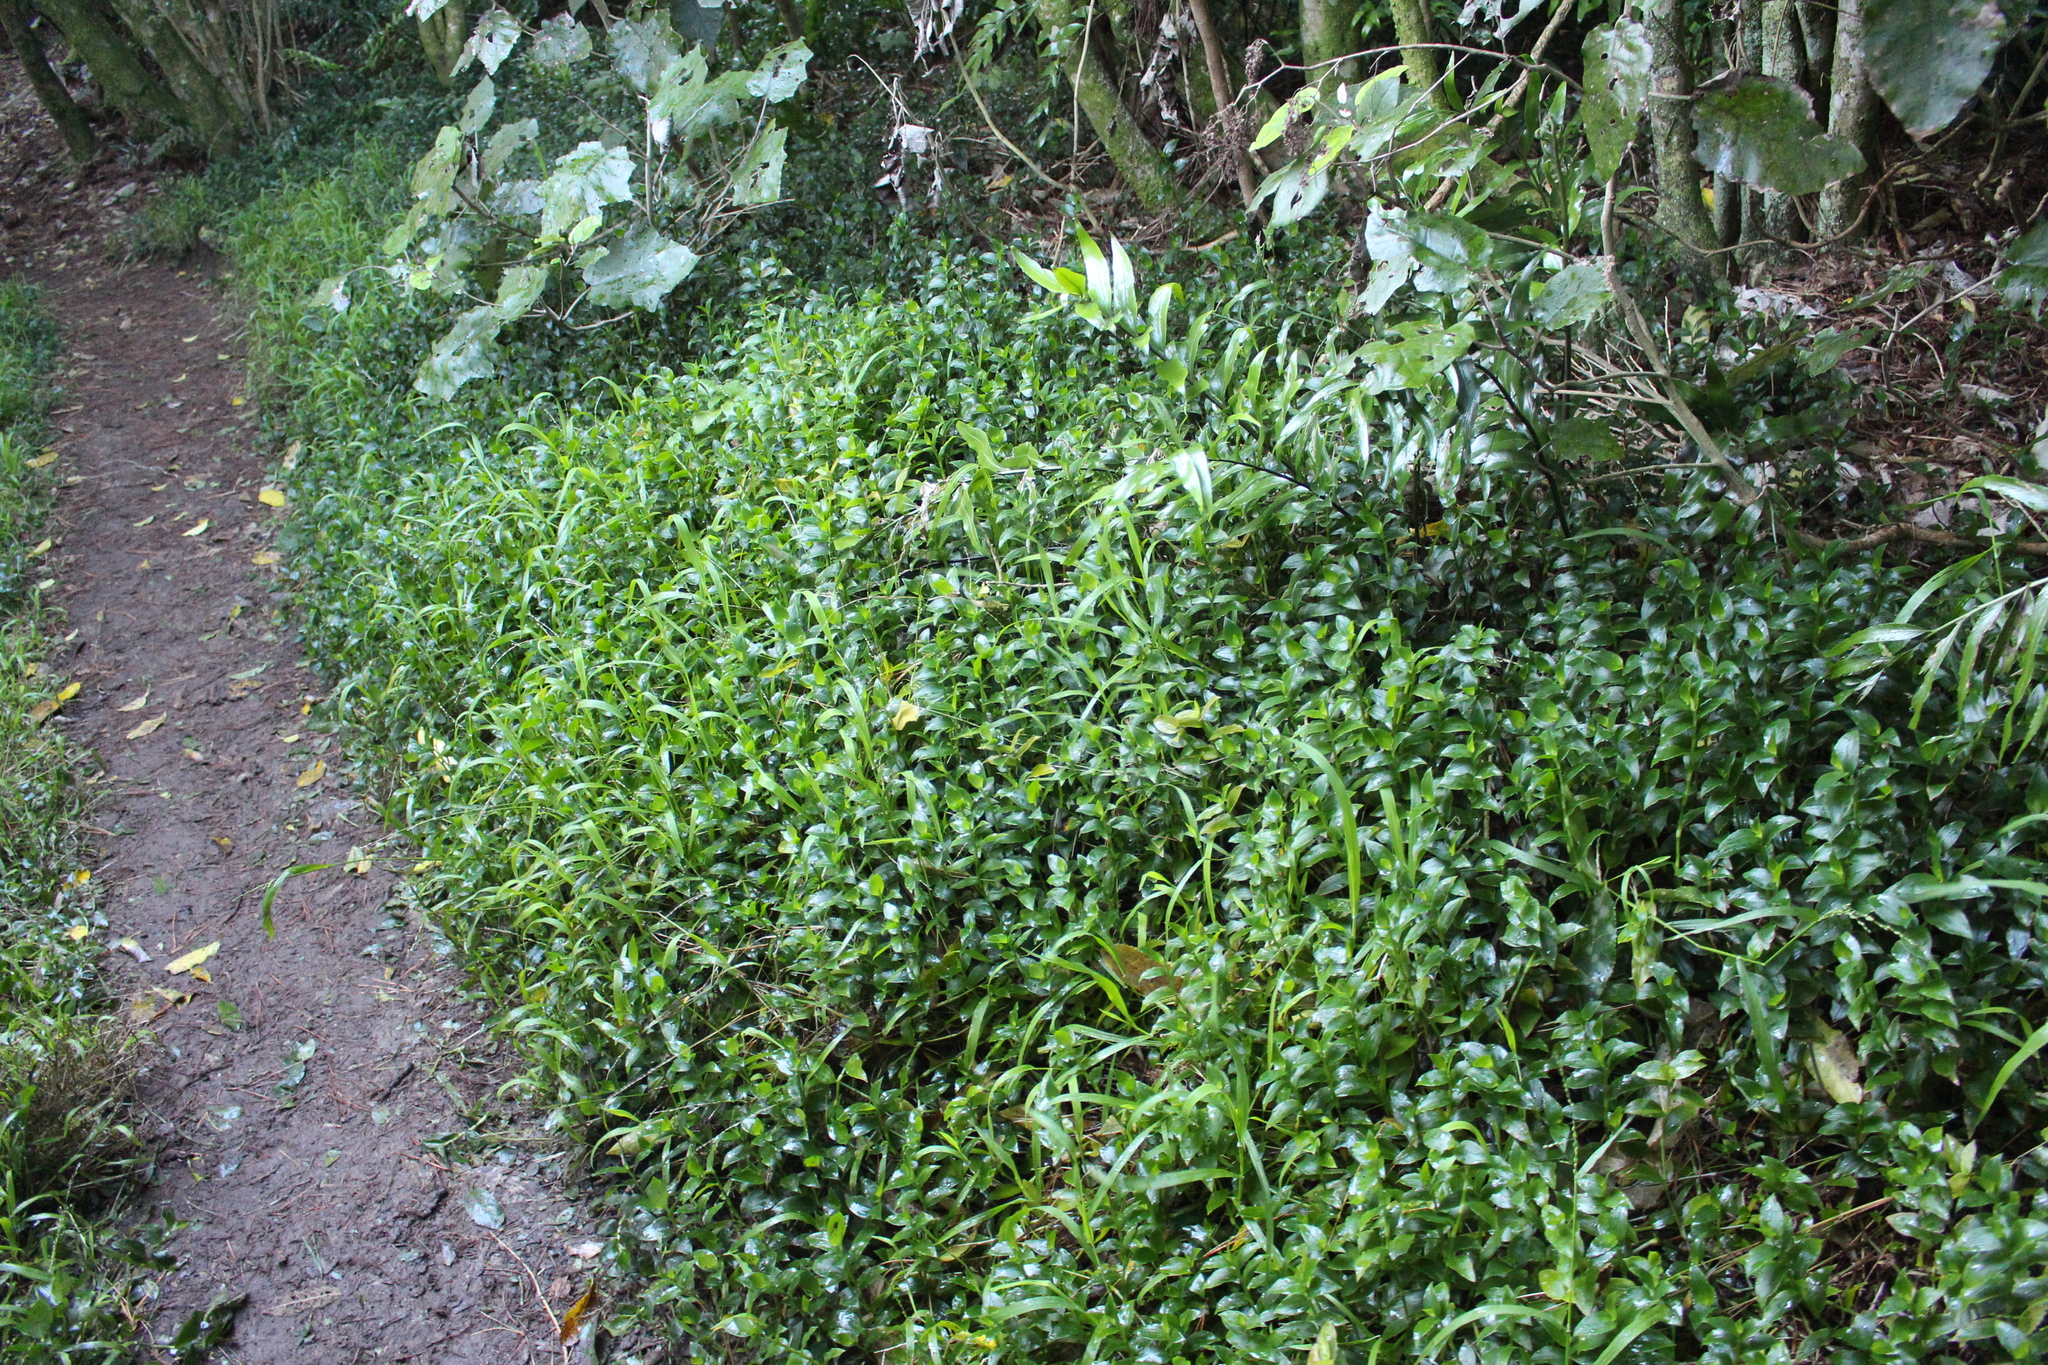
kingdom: Plantae
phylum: Tracheophyta
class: Liliopsida
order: Commelinales
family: Commelinaceae
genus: Tradescantia
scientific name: Tradescantia fluminensis
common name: Wandering-jew
